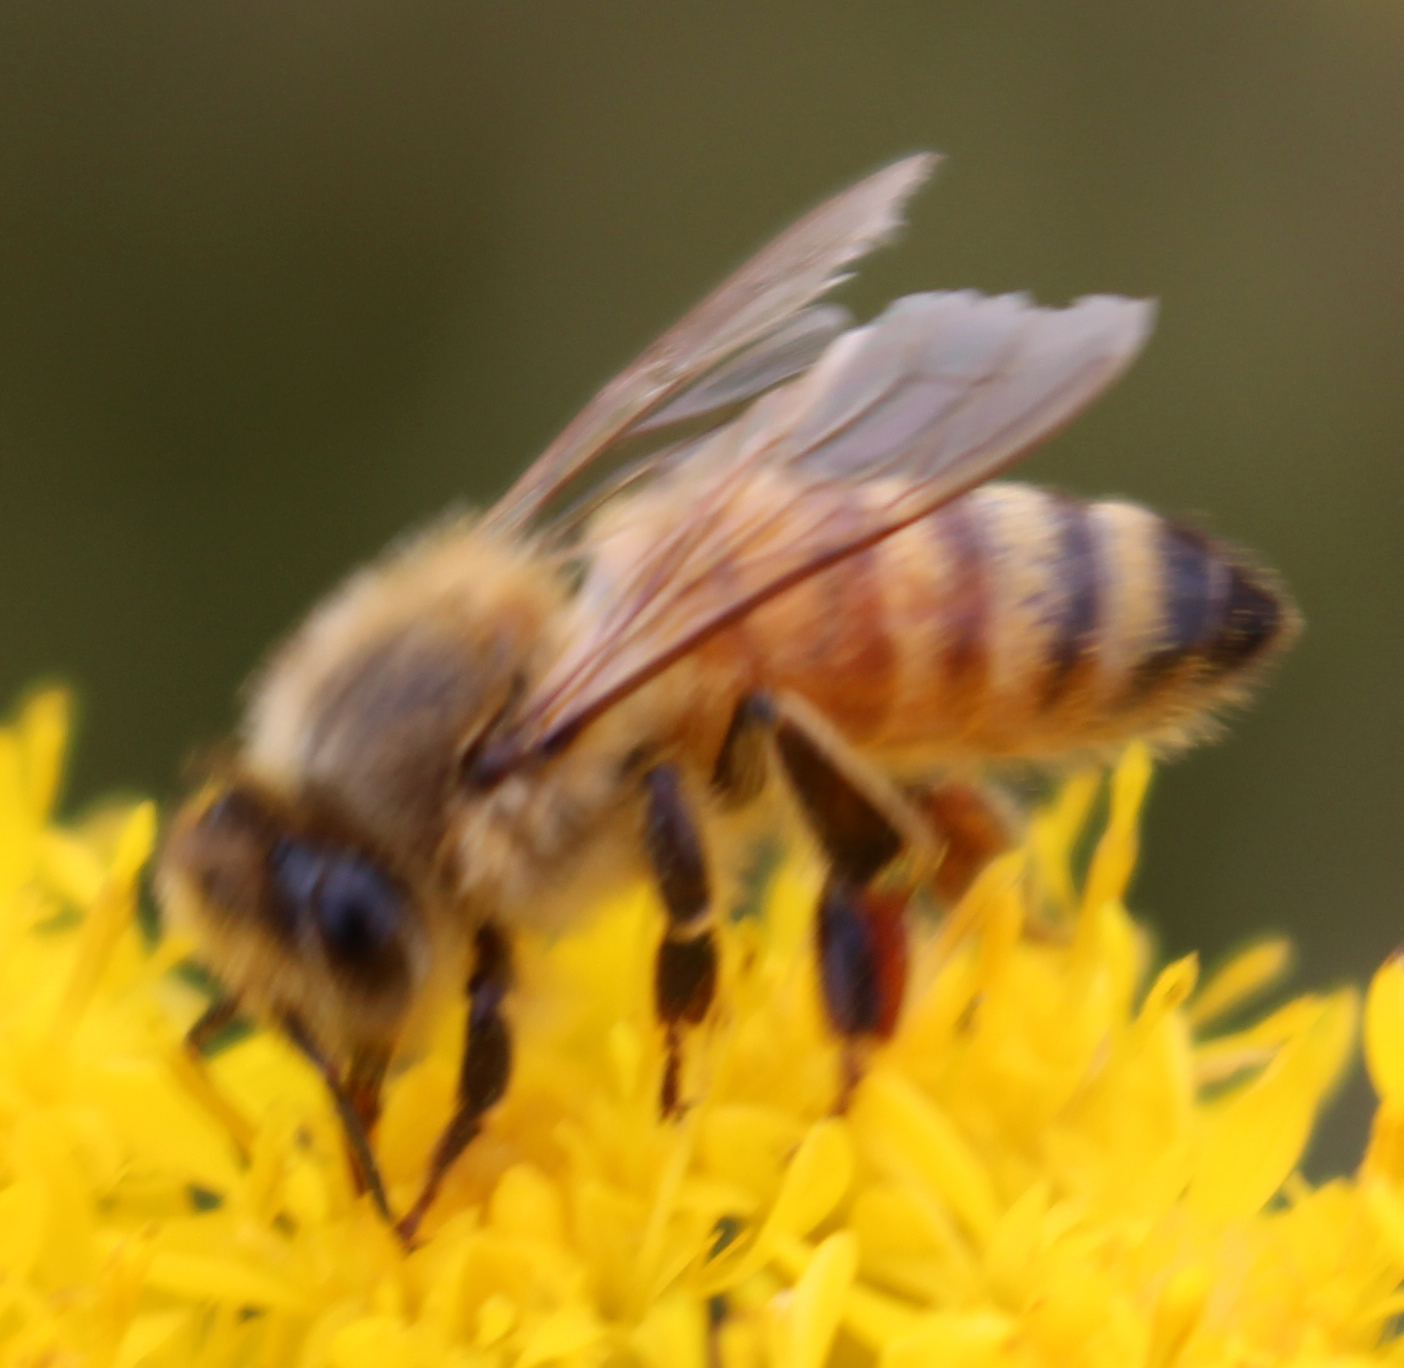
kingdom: Animalia
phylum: Arthropoda
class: Insecta
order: Hymenoptera
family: Apidae
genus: Apis
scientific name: Apis mellifera
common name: Honey bee
